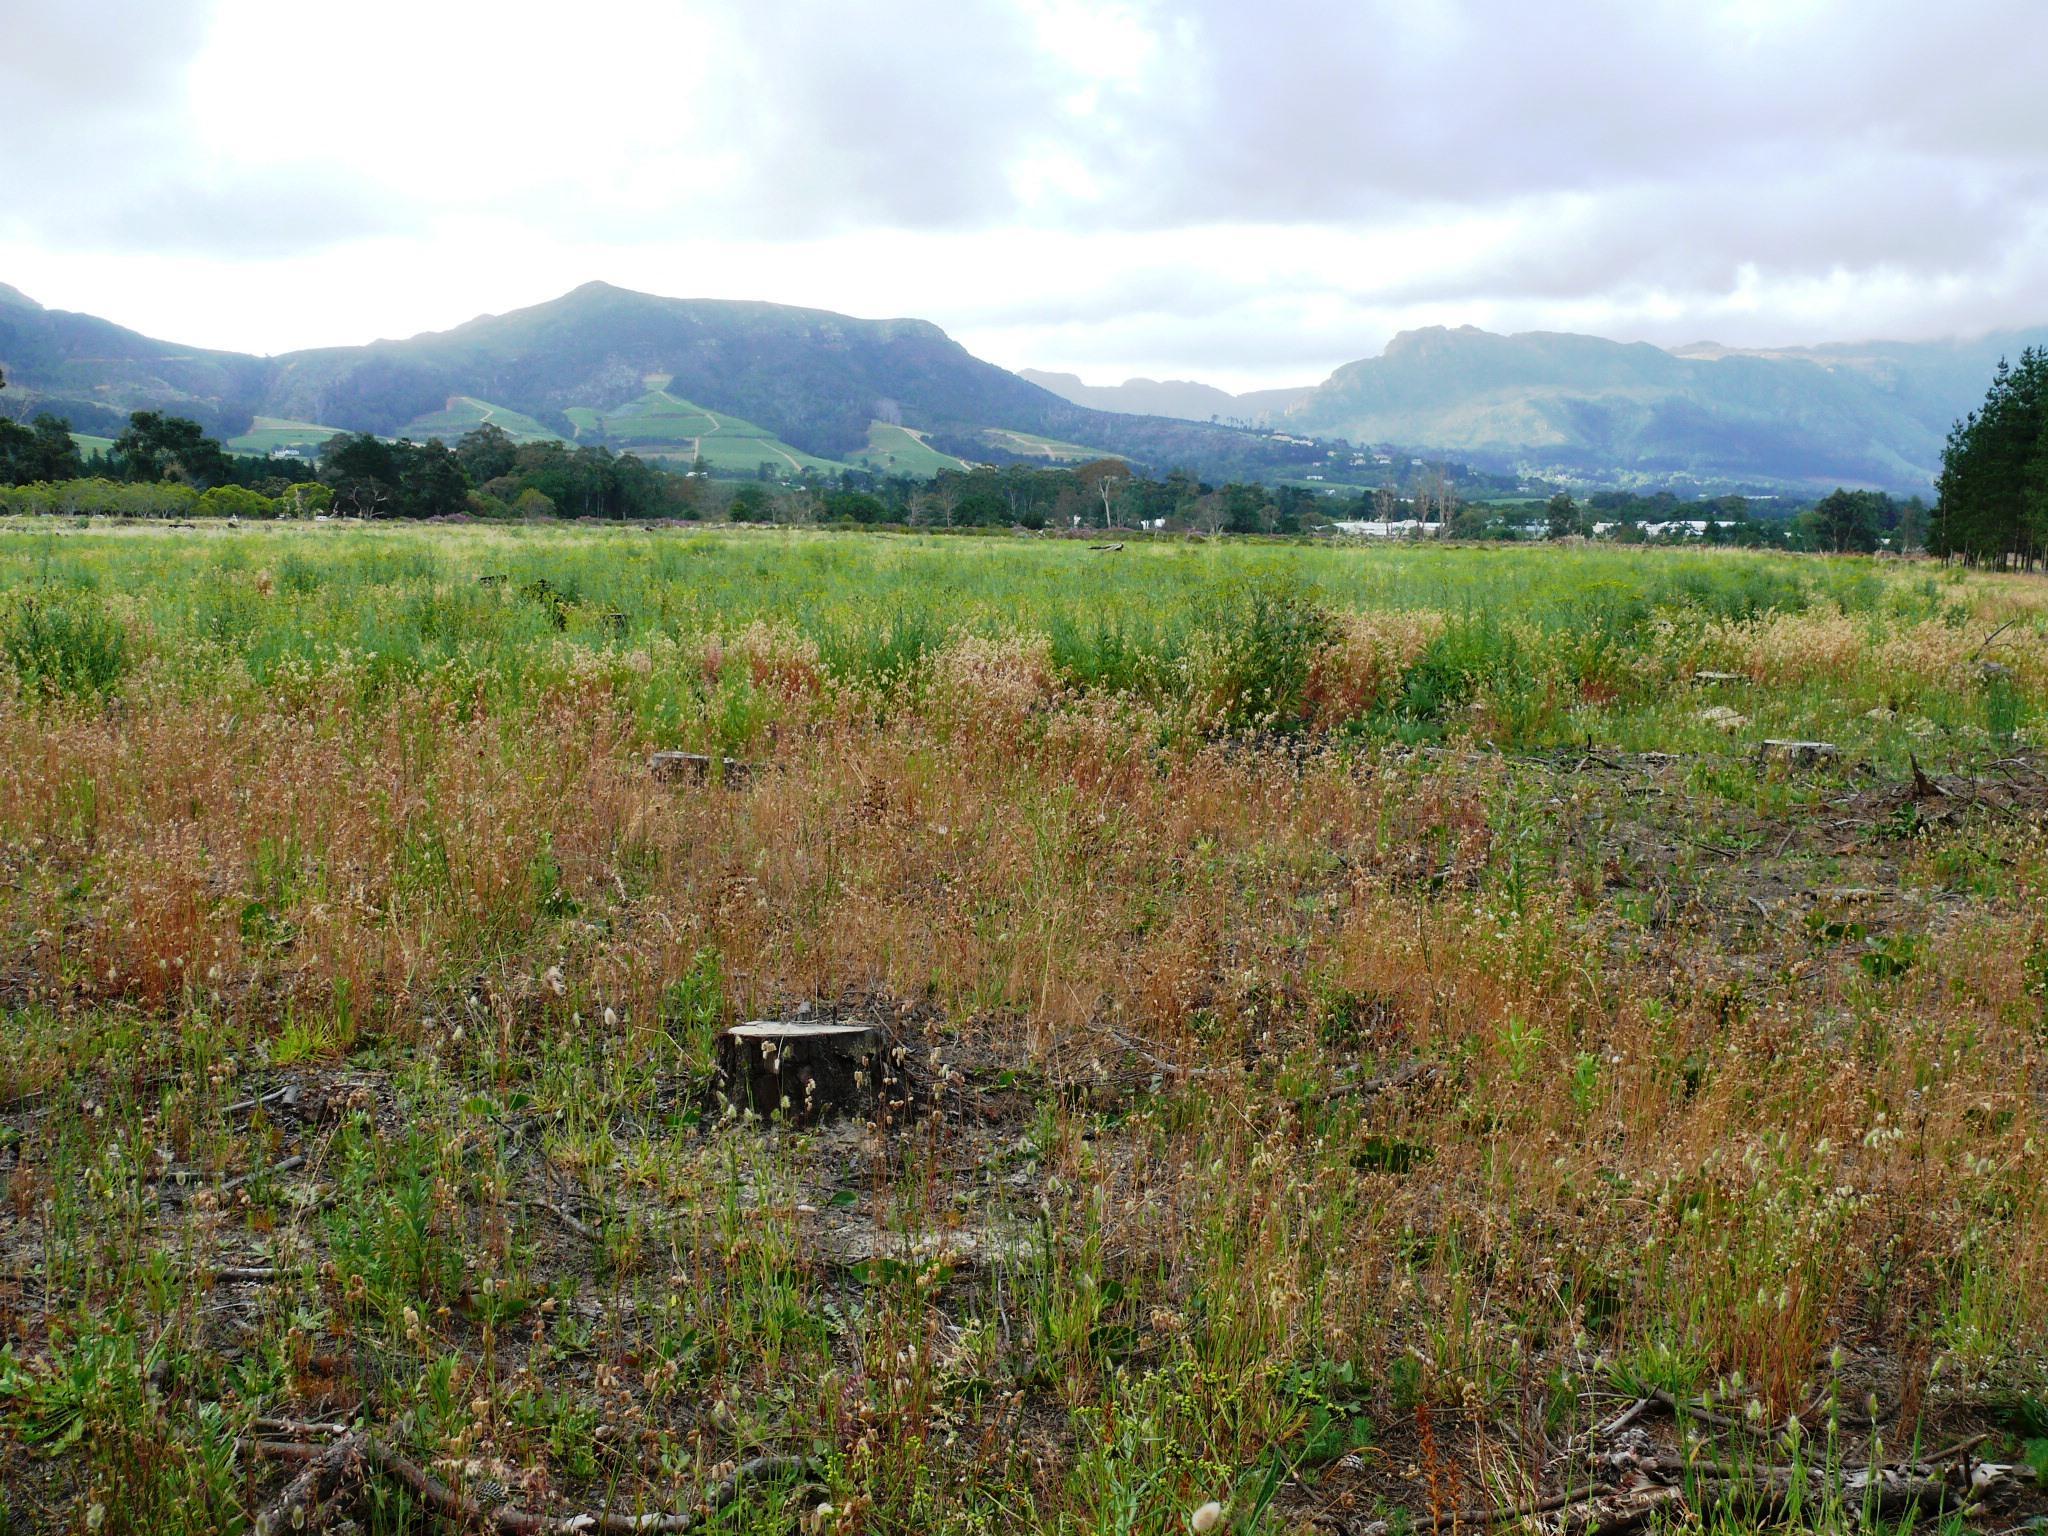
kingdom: Plantae
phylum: Tracheophyta
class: Liliopsida
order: Poales
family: Poaceae
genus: Briza
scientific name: Briza maxima
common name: Big quakinggrass
